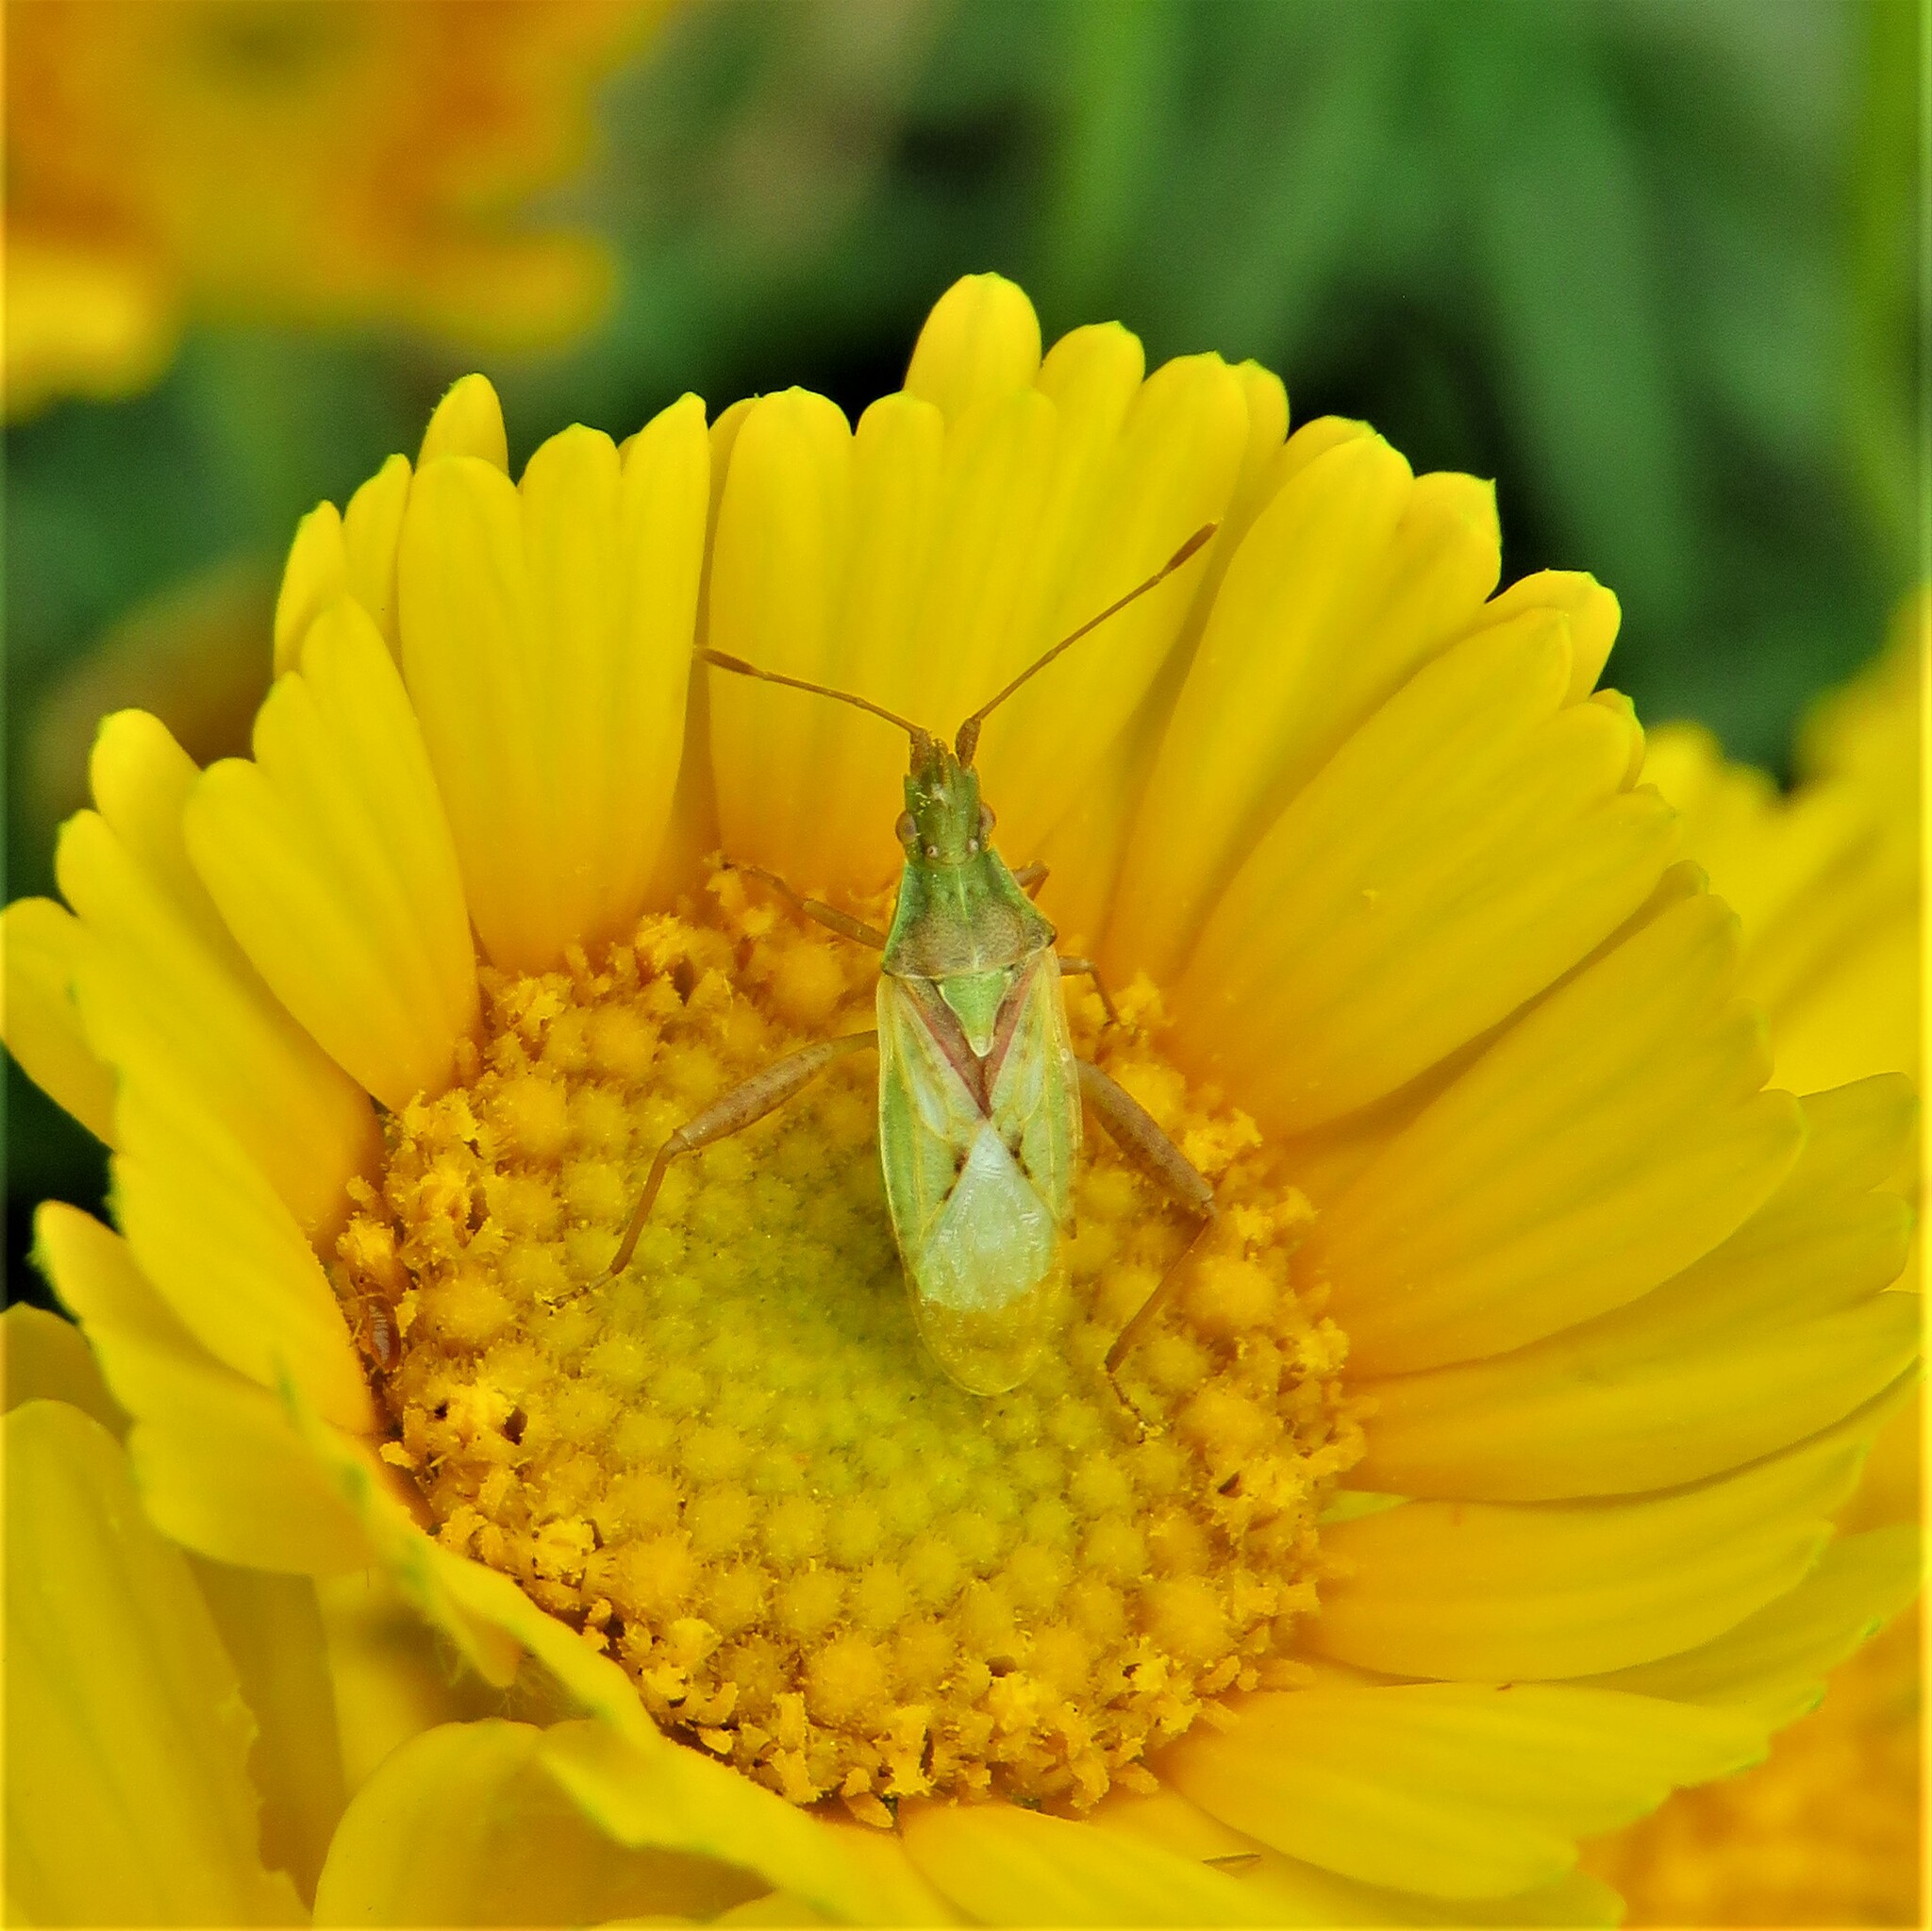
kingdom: Animalia
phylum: Arthropoda
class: Insecta
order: Hemiptera
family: Rhopalidae
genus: Harmostes
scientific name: Harmostes reflexulus
